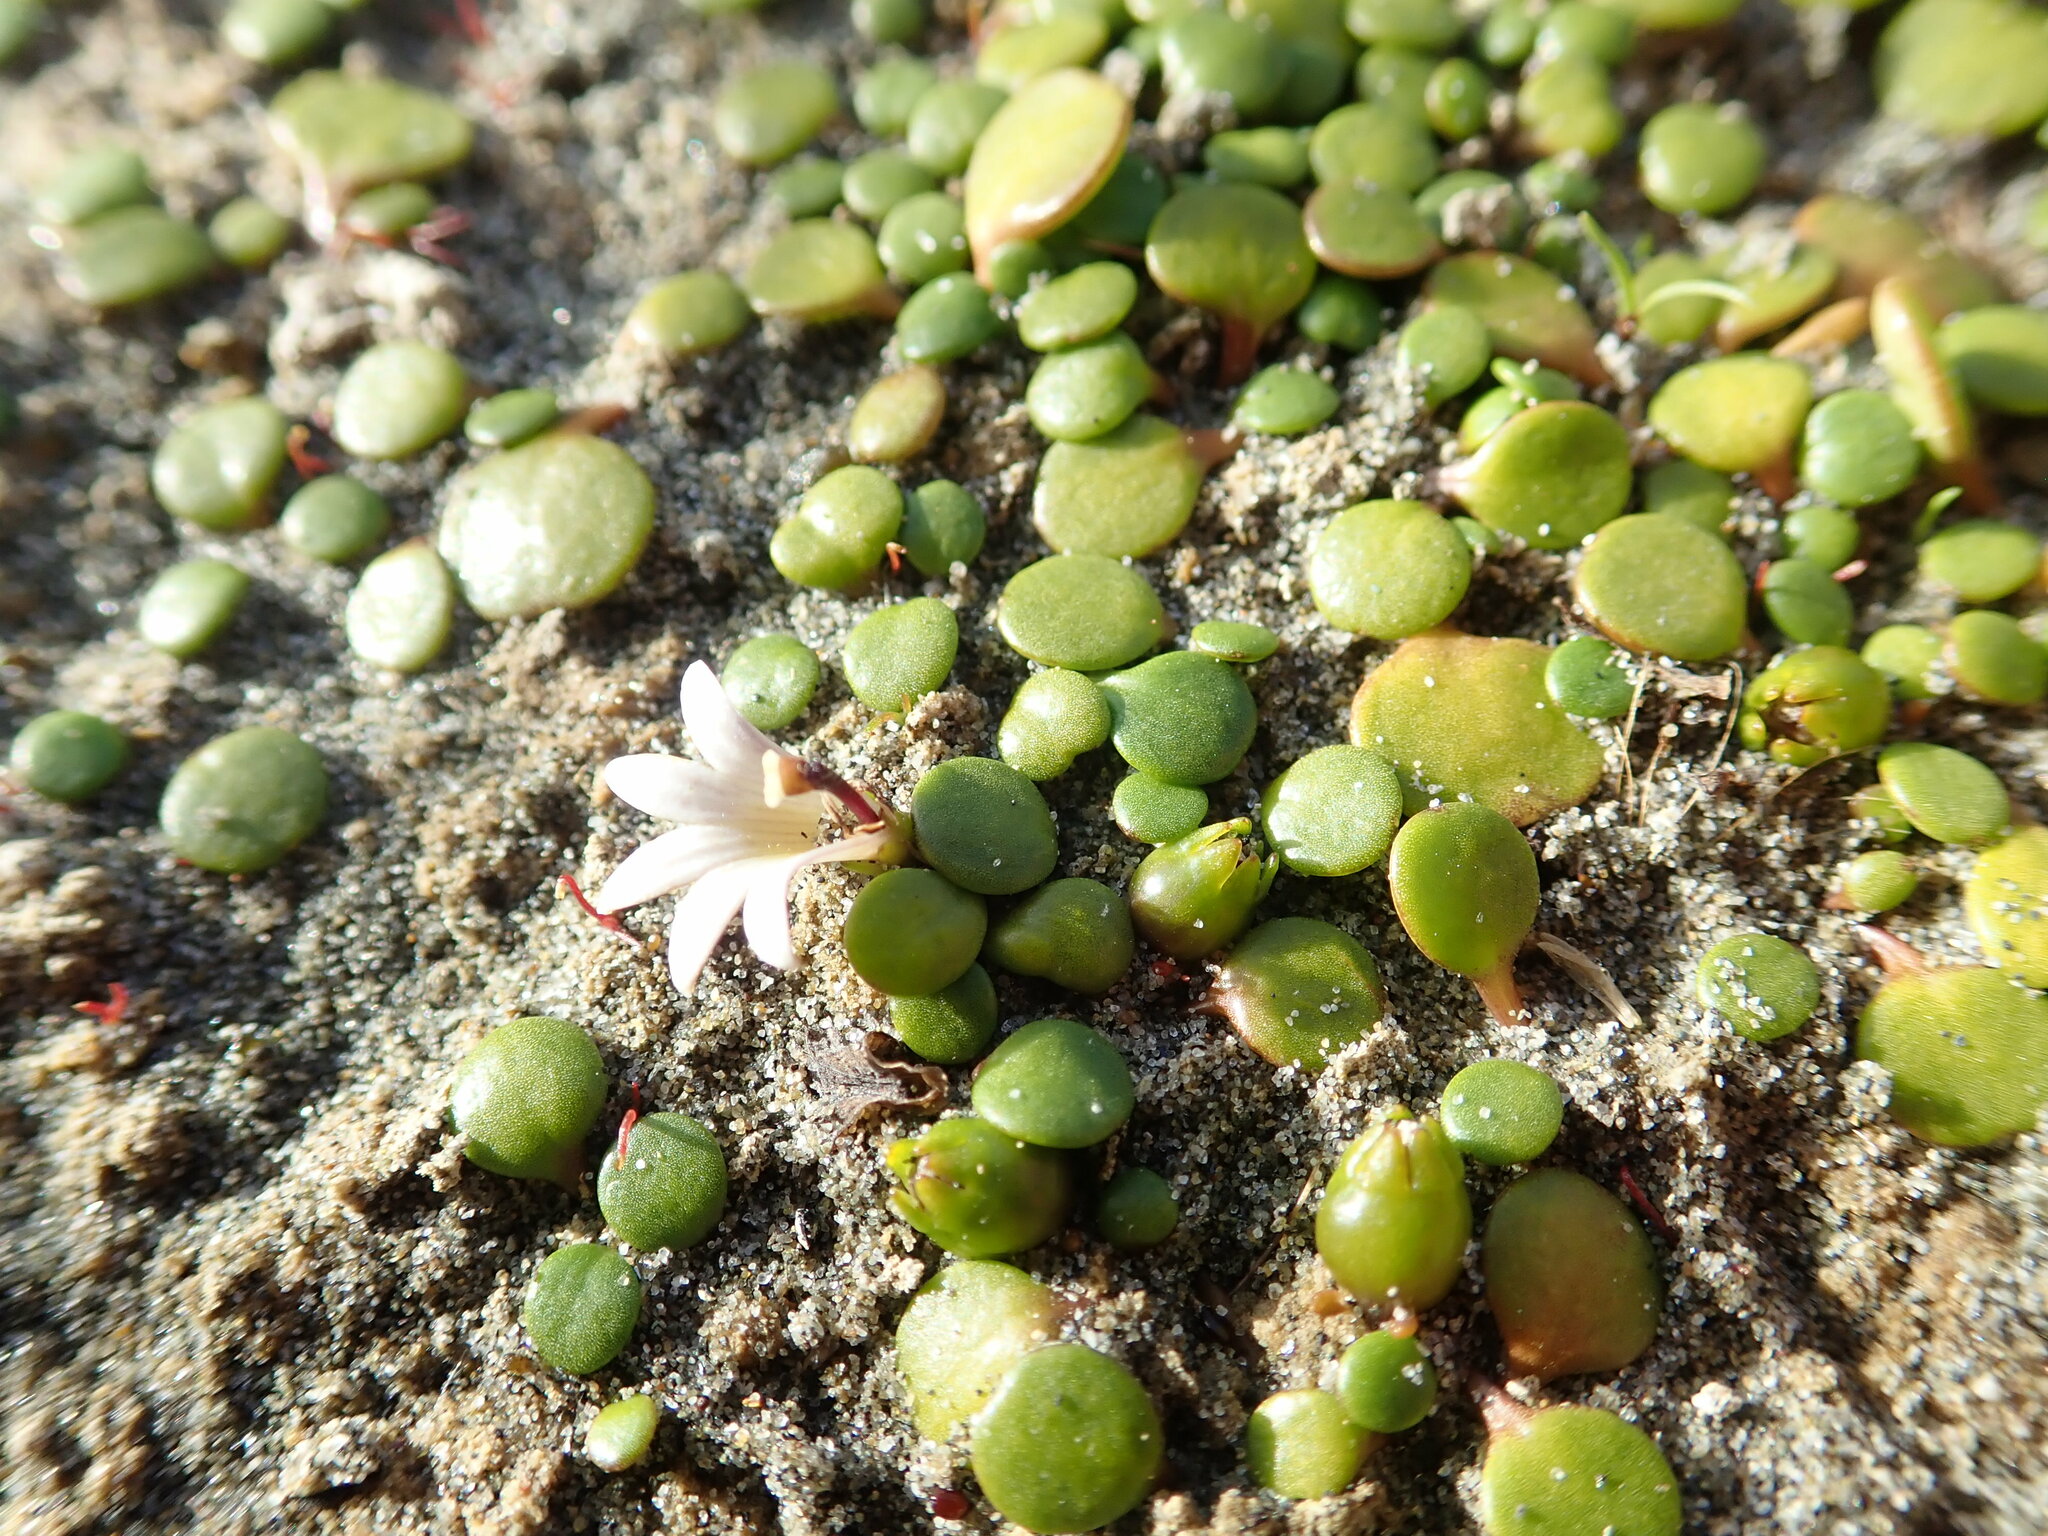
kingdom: Plantae
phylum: Tracheophyta
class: Magnoliopsida
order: Asterales
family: Goodeniaceae
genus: Goodenia
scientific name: Goodenia heenanii
